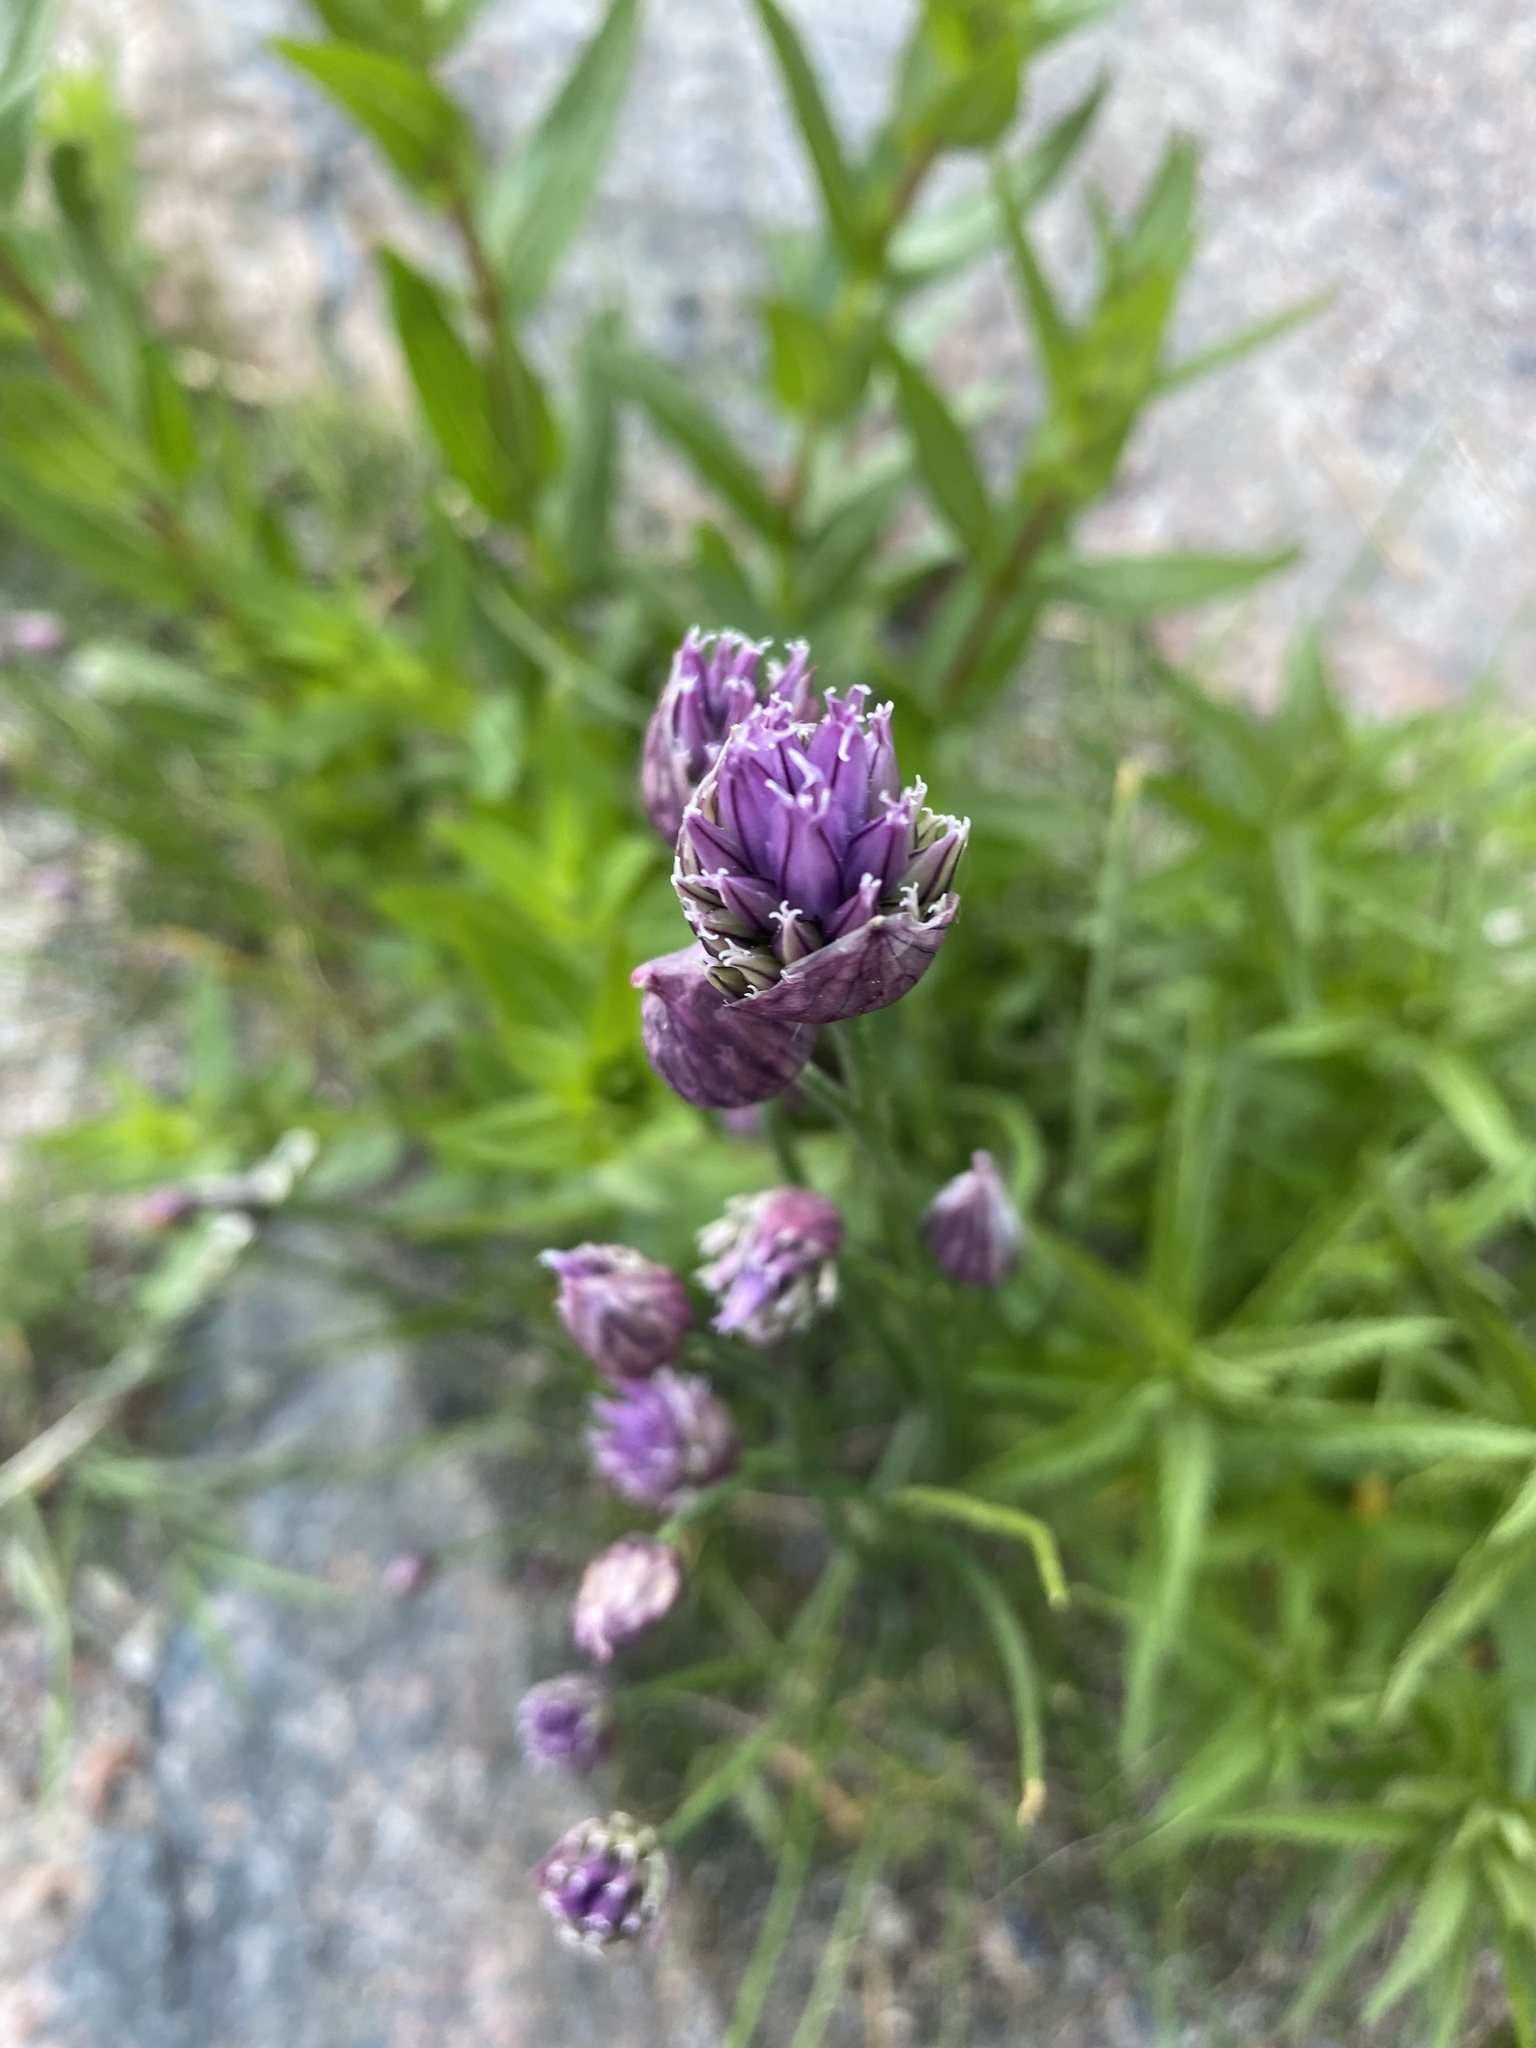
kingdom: Plantae
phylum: Tracheophyta
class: Liliopsida
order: Asparagales
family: Amaryllidaceae
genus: Allium
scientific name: Allium schoenoprasum
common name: Chives
